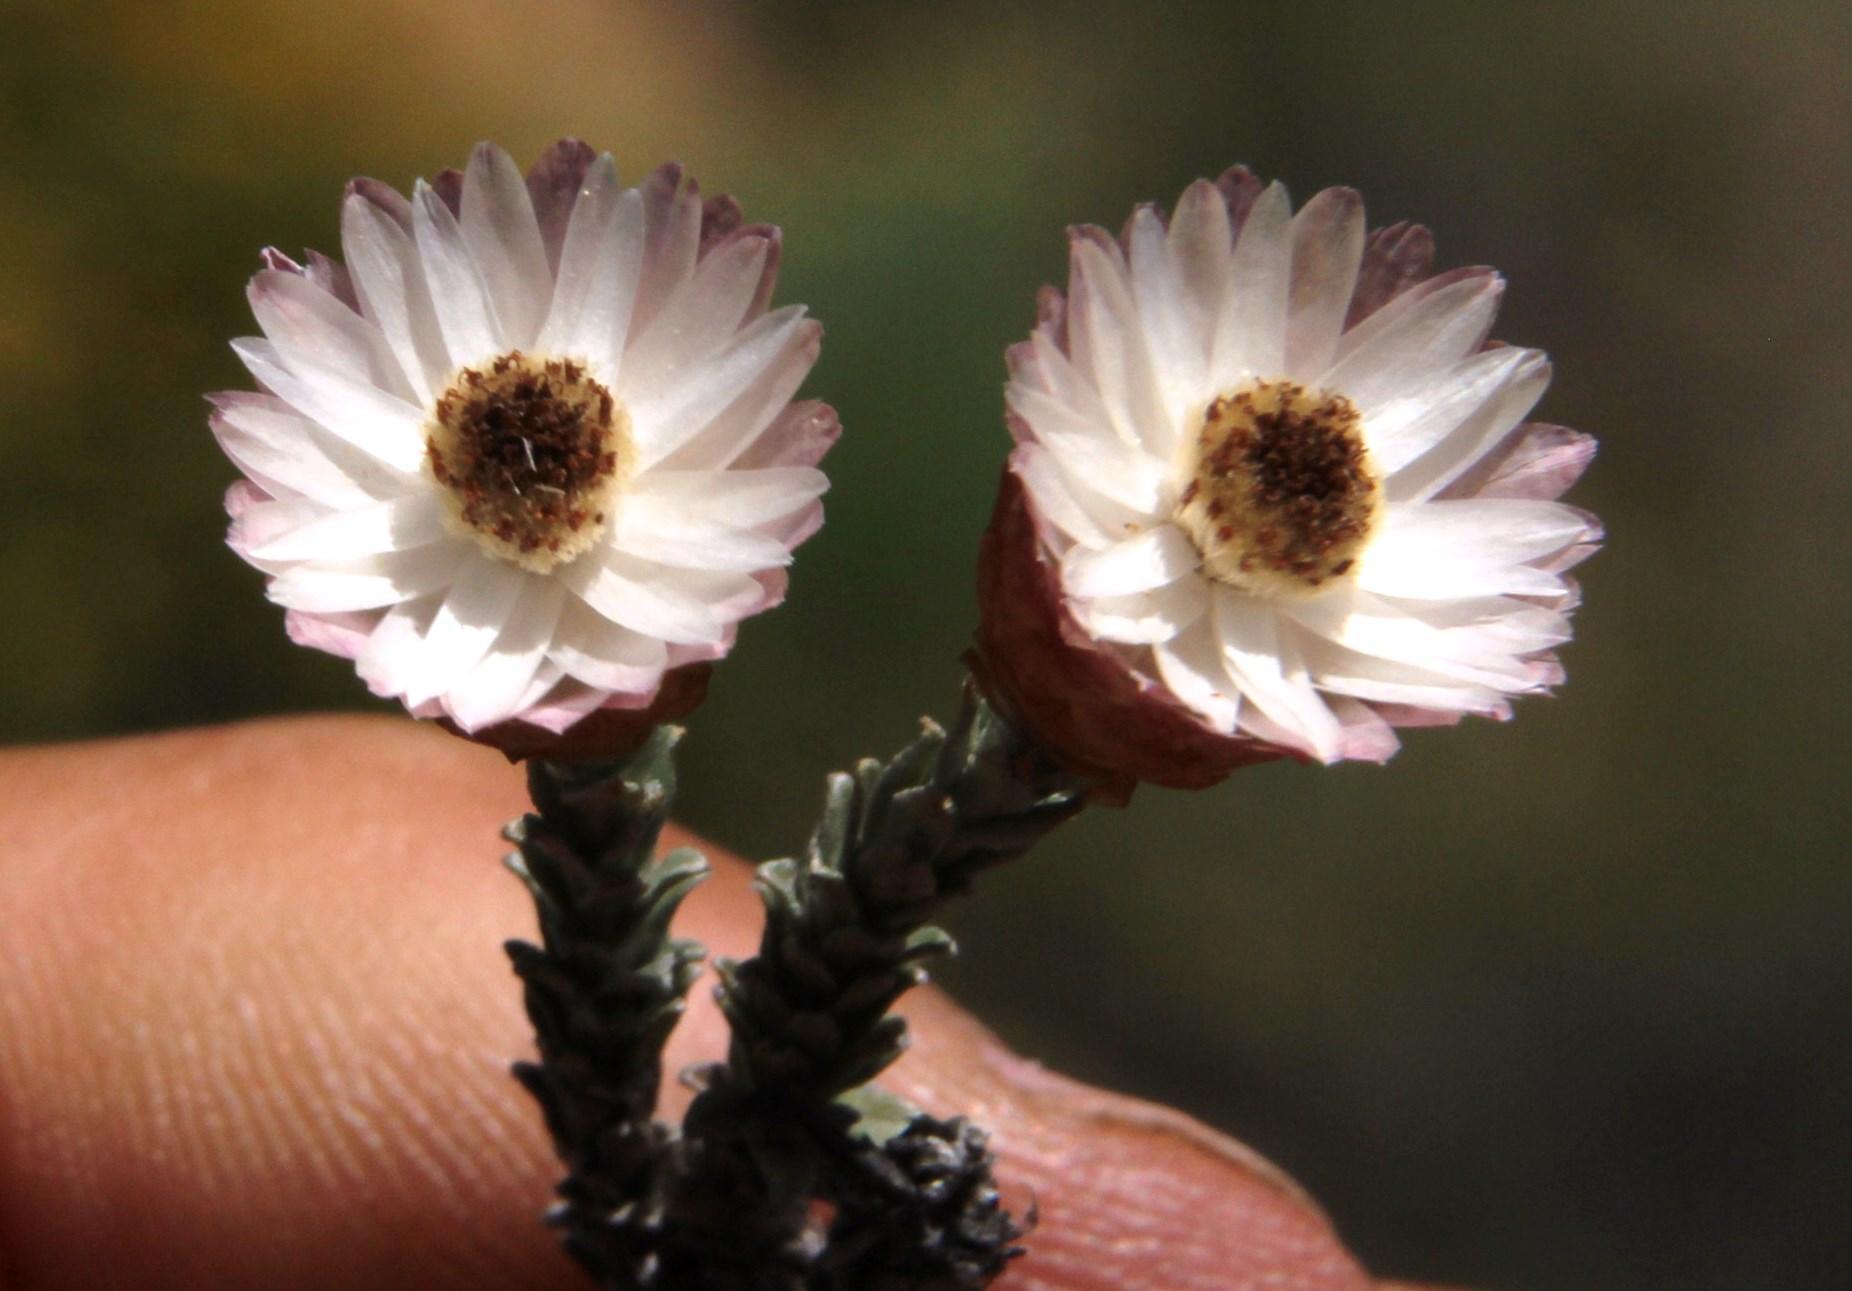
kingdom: Plantae
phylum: Tracheophyta
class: Magnoliopsida
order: Asterales
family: Asteraceae
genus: Helichrysum
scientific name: Helichrysum stoloniferum
